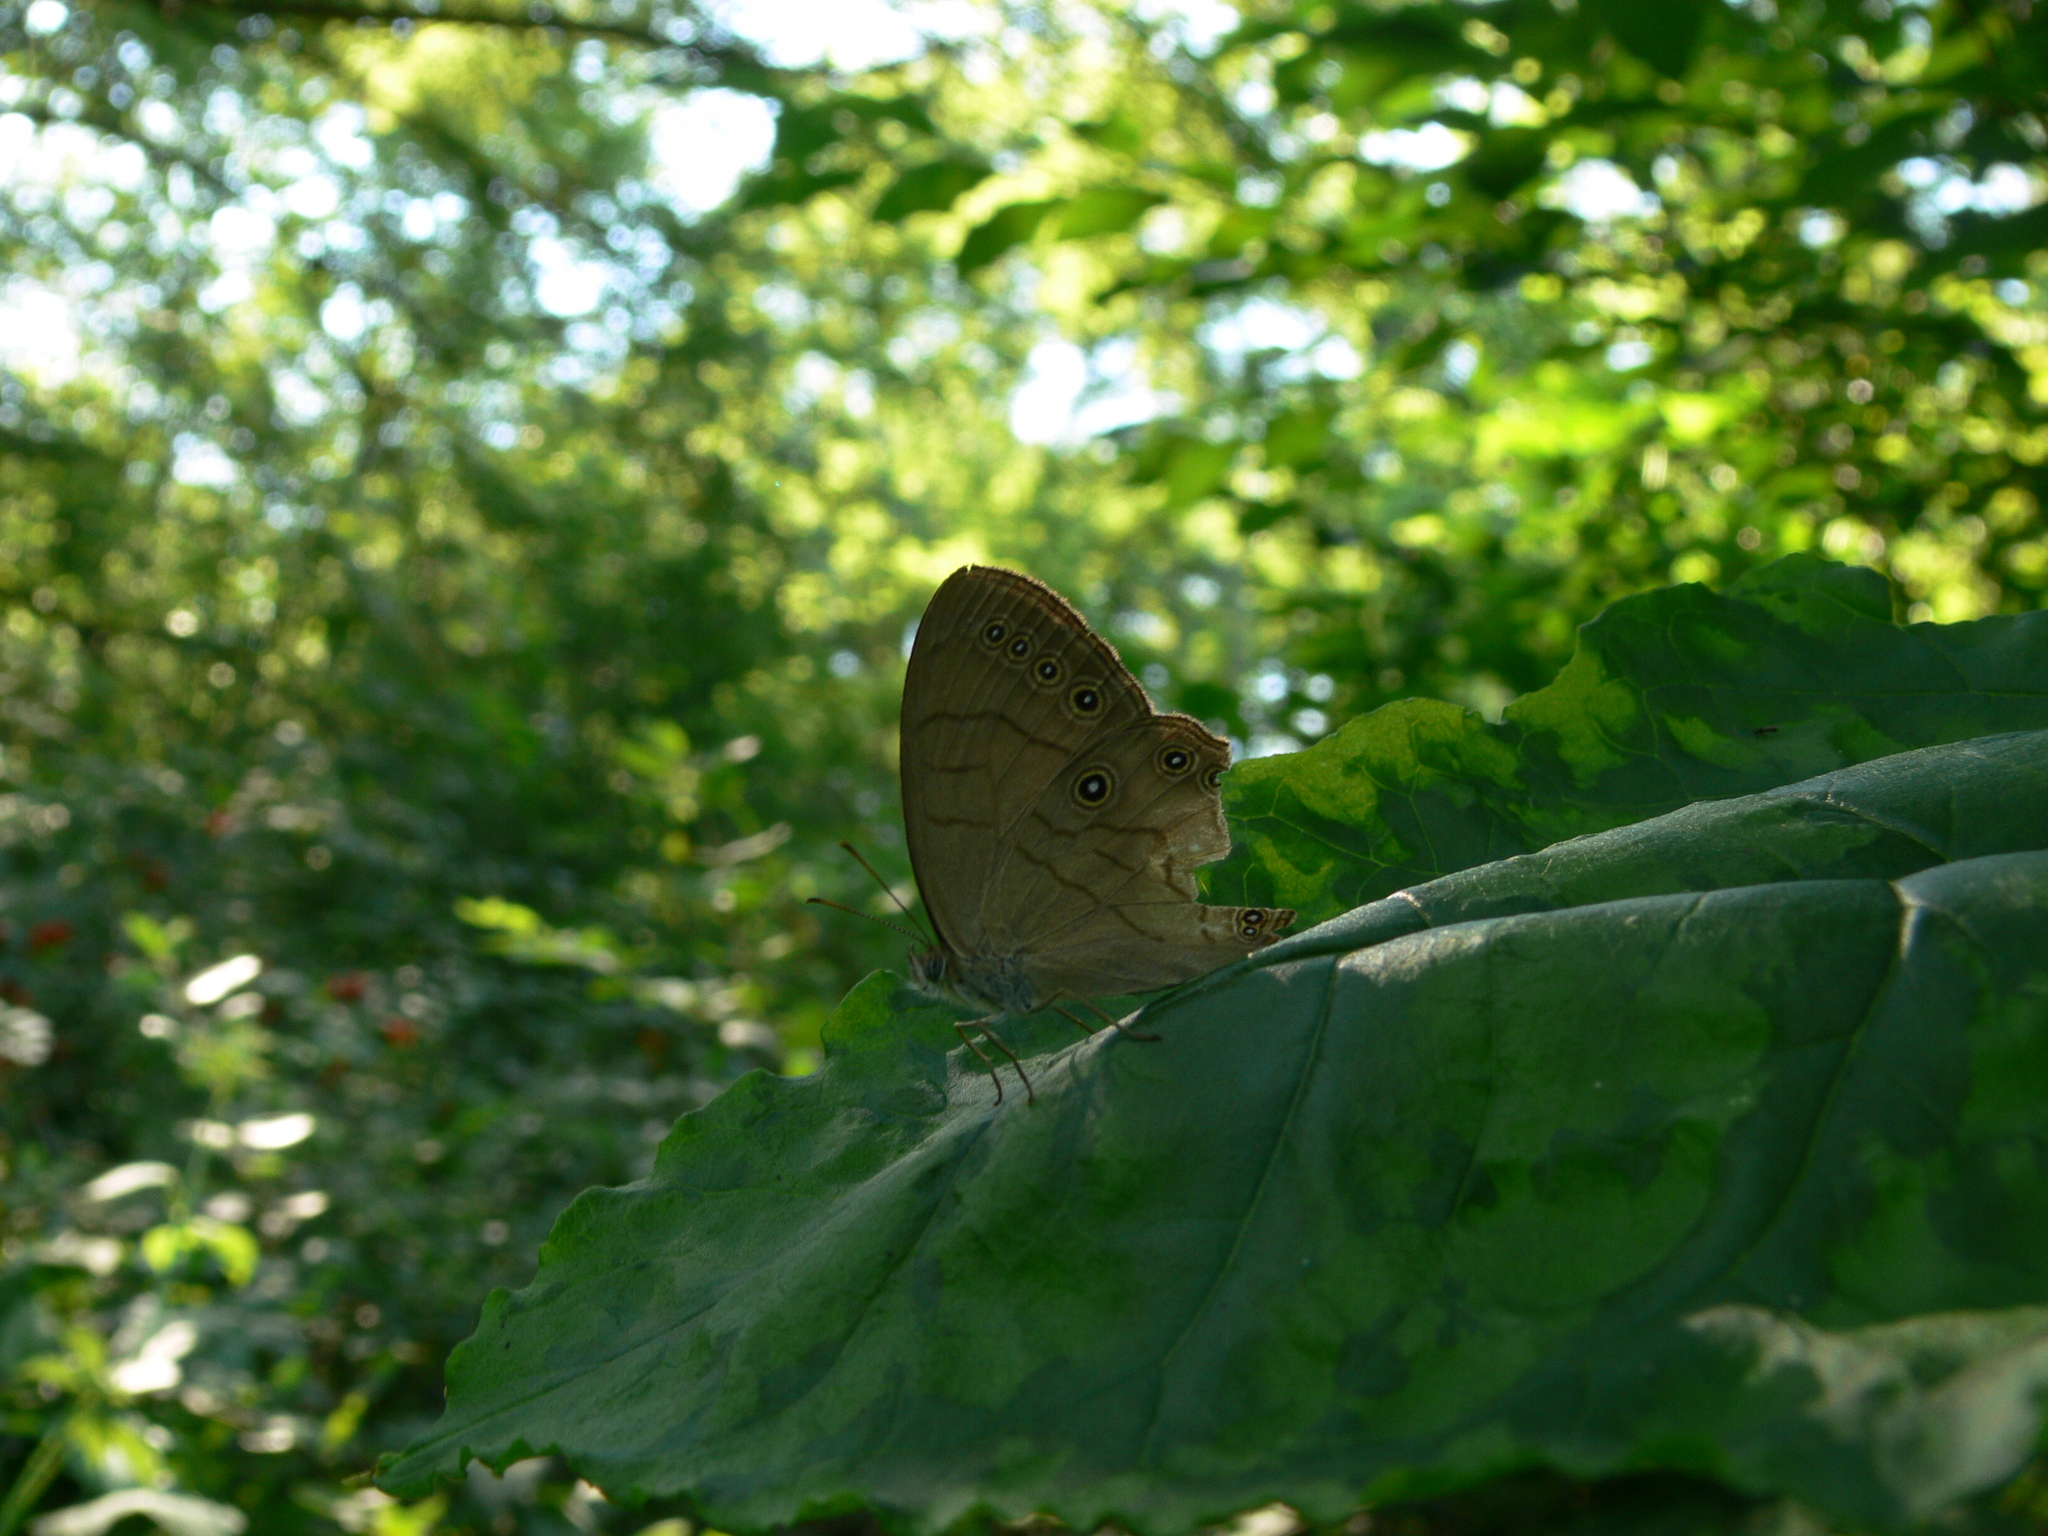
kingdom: Animalia
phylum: Arthropoda
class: Insecta
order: Lepidoptera
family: Nymphalidae
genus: Lethe
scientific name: Lethe eurydice
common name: Eyed brown
